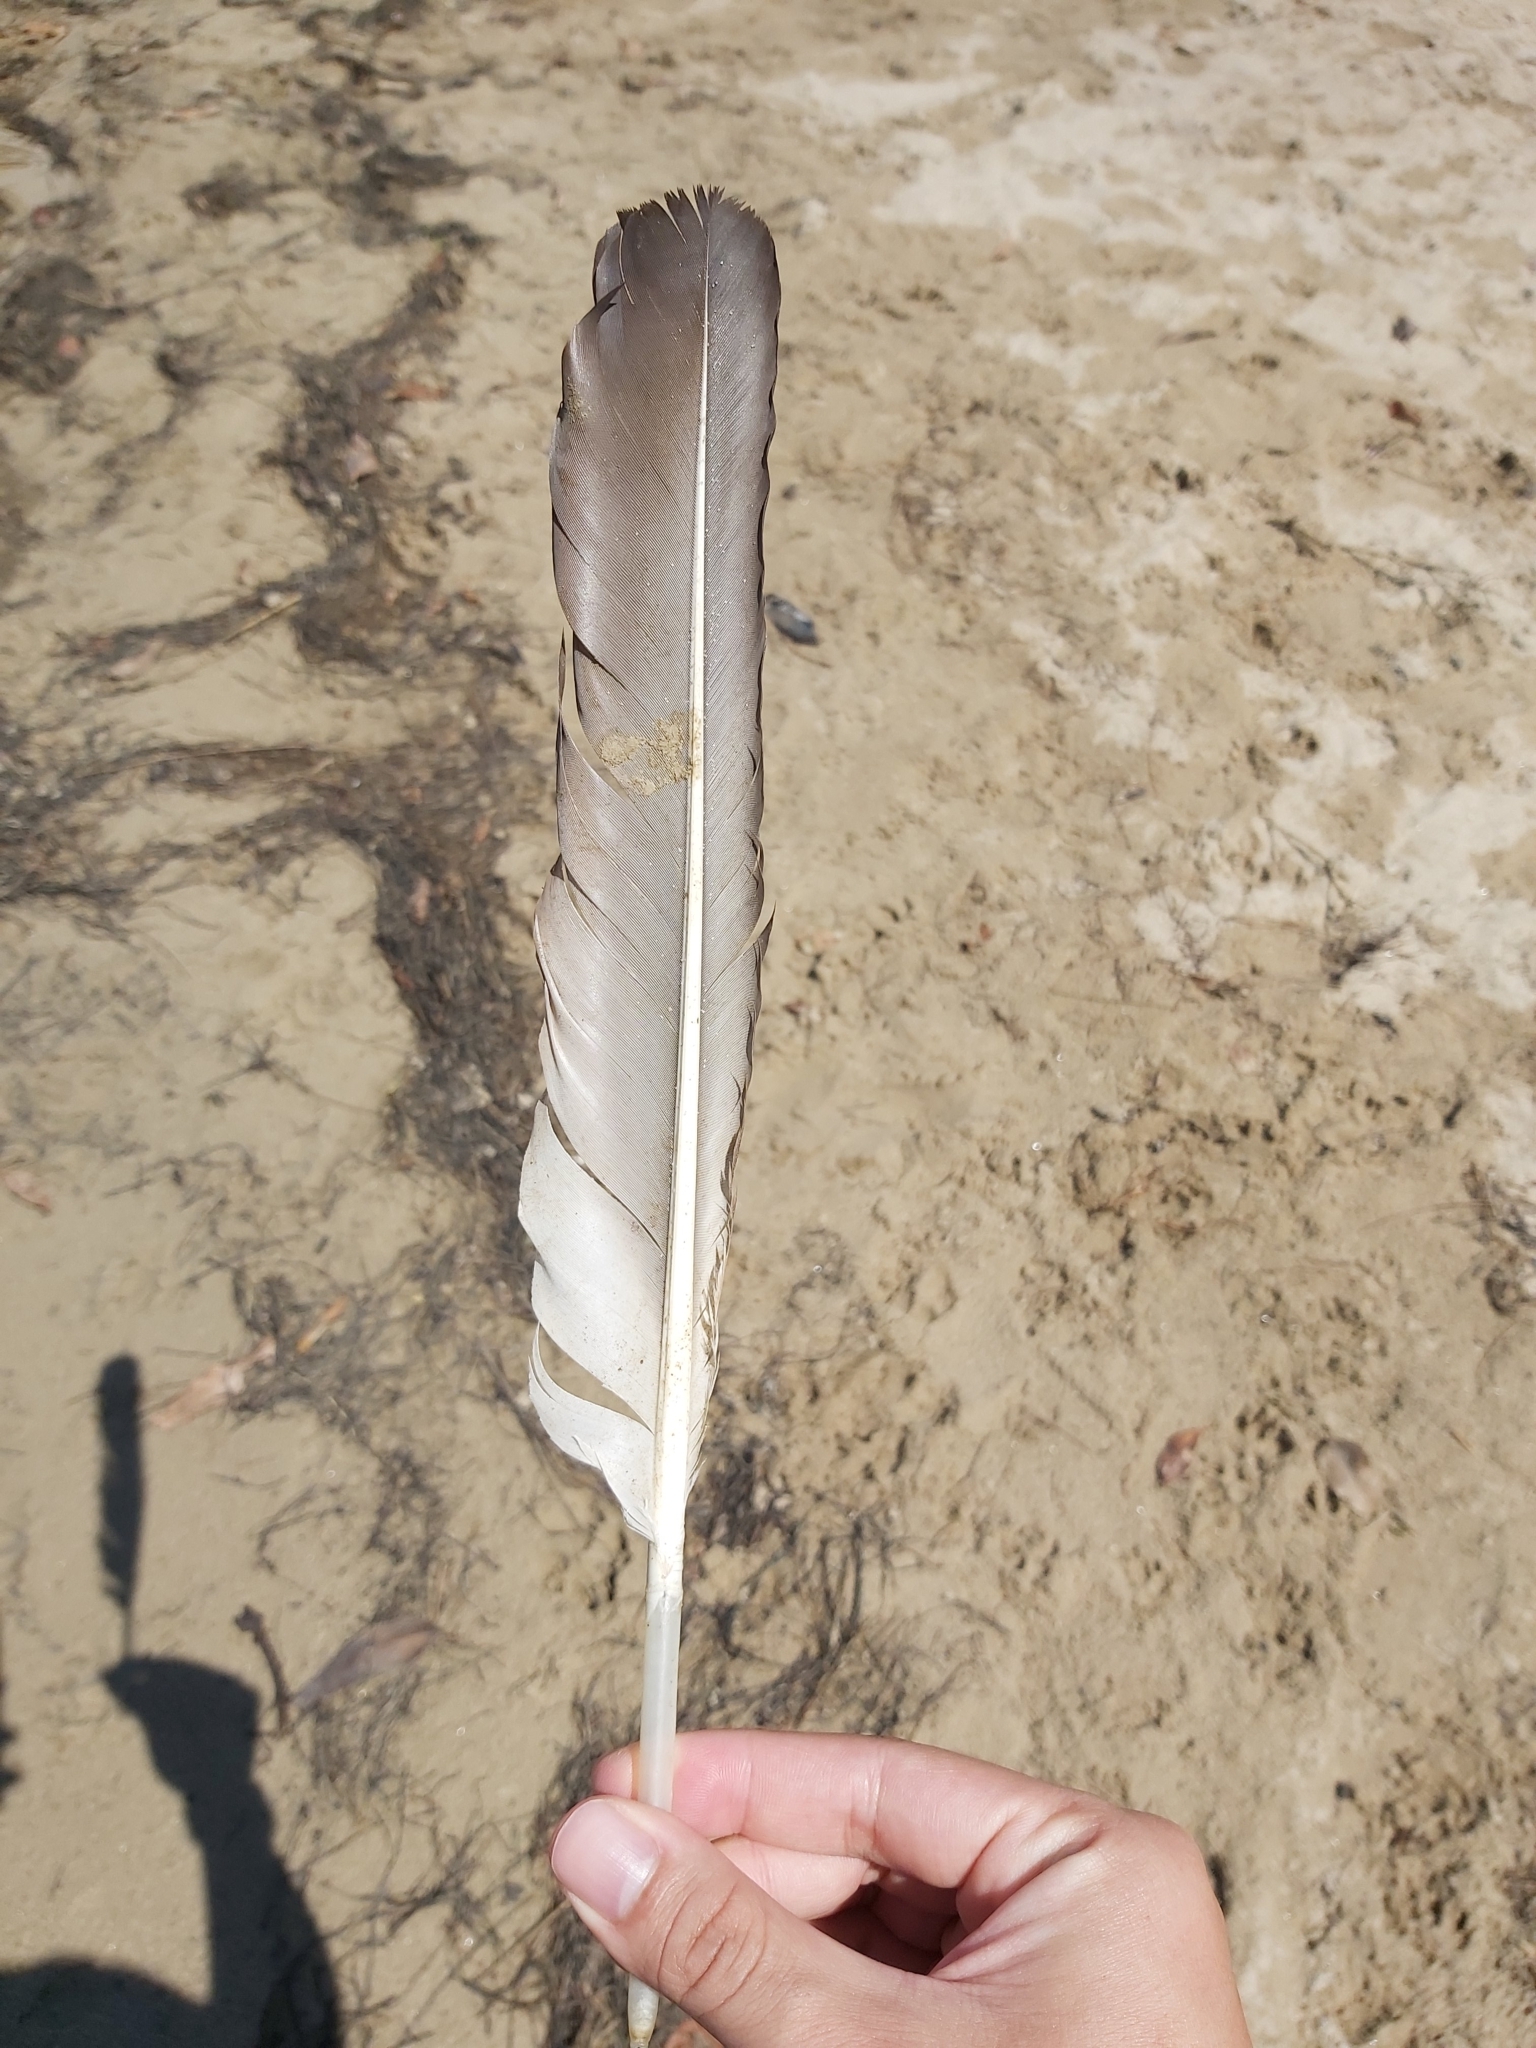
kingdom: Animalia
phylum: Chordata
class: Aves
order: Pelecaniformes
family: Pelecanidae
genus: Pelecanus
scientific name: Pelecanus conspicillatus
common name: Australian pelican
